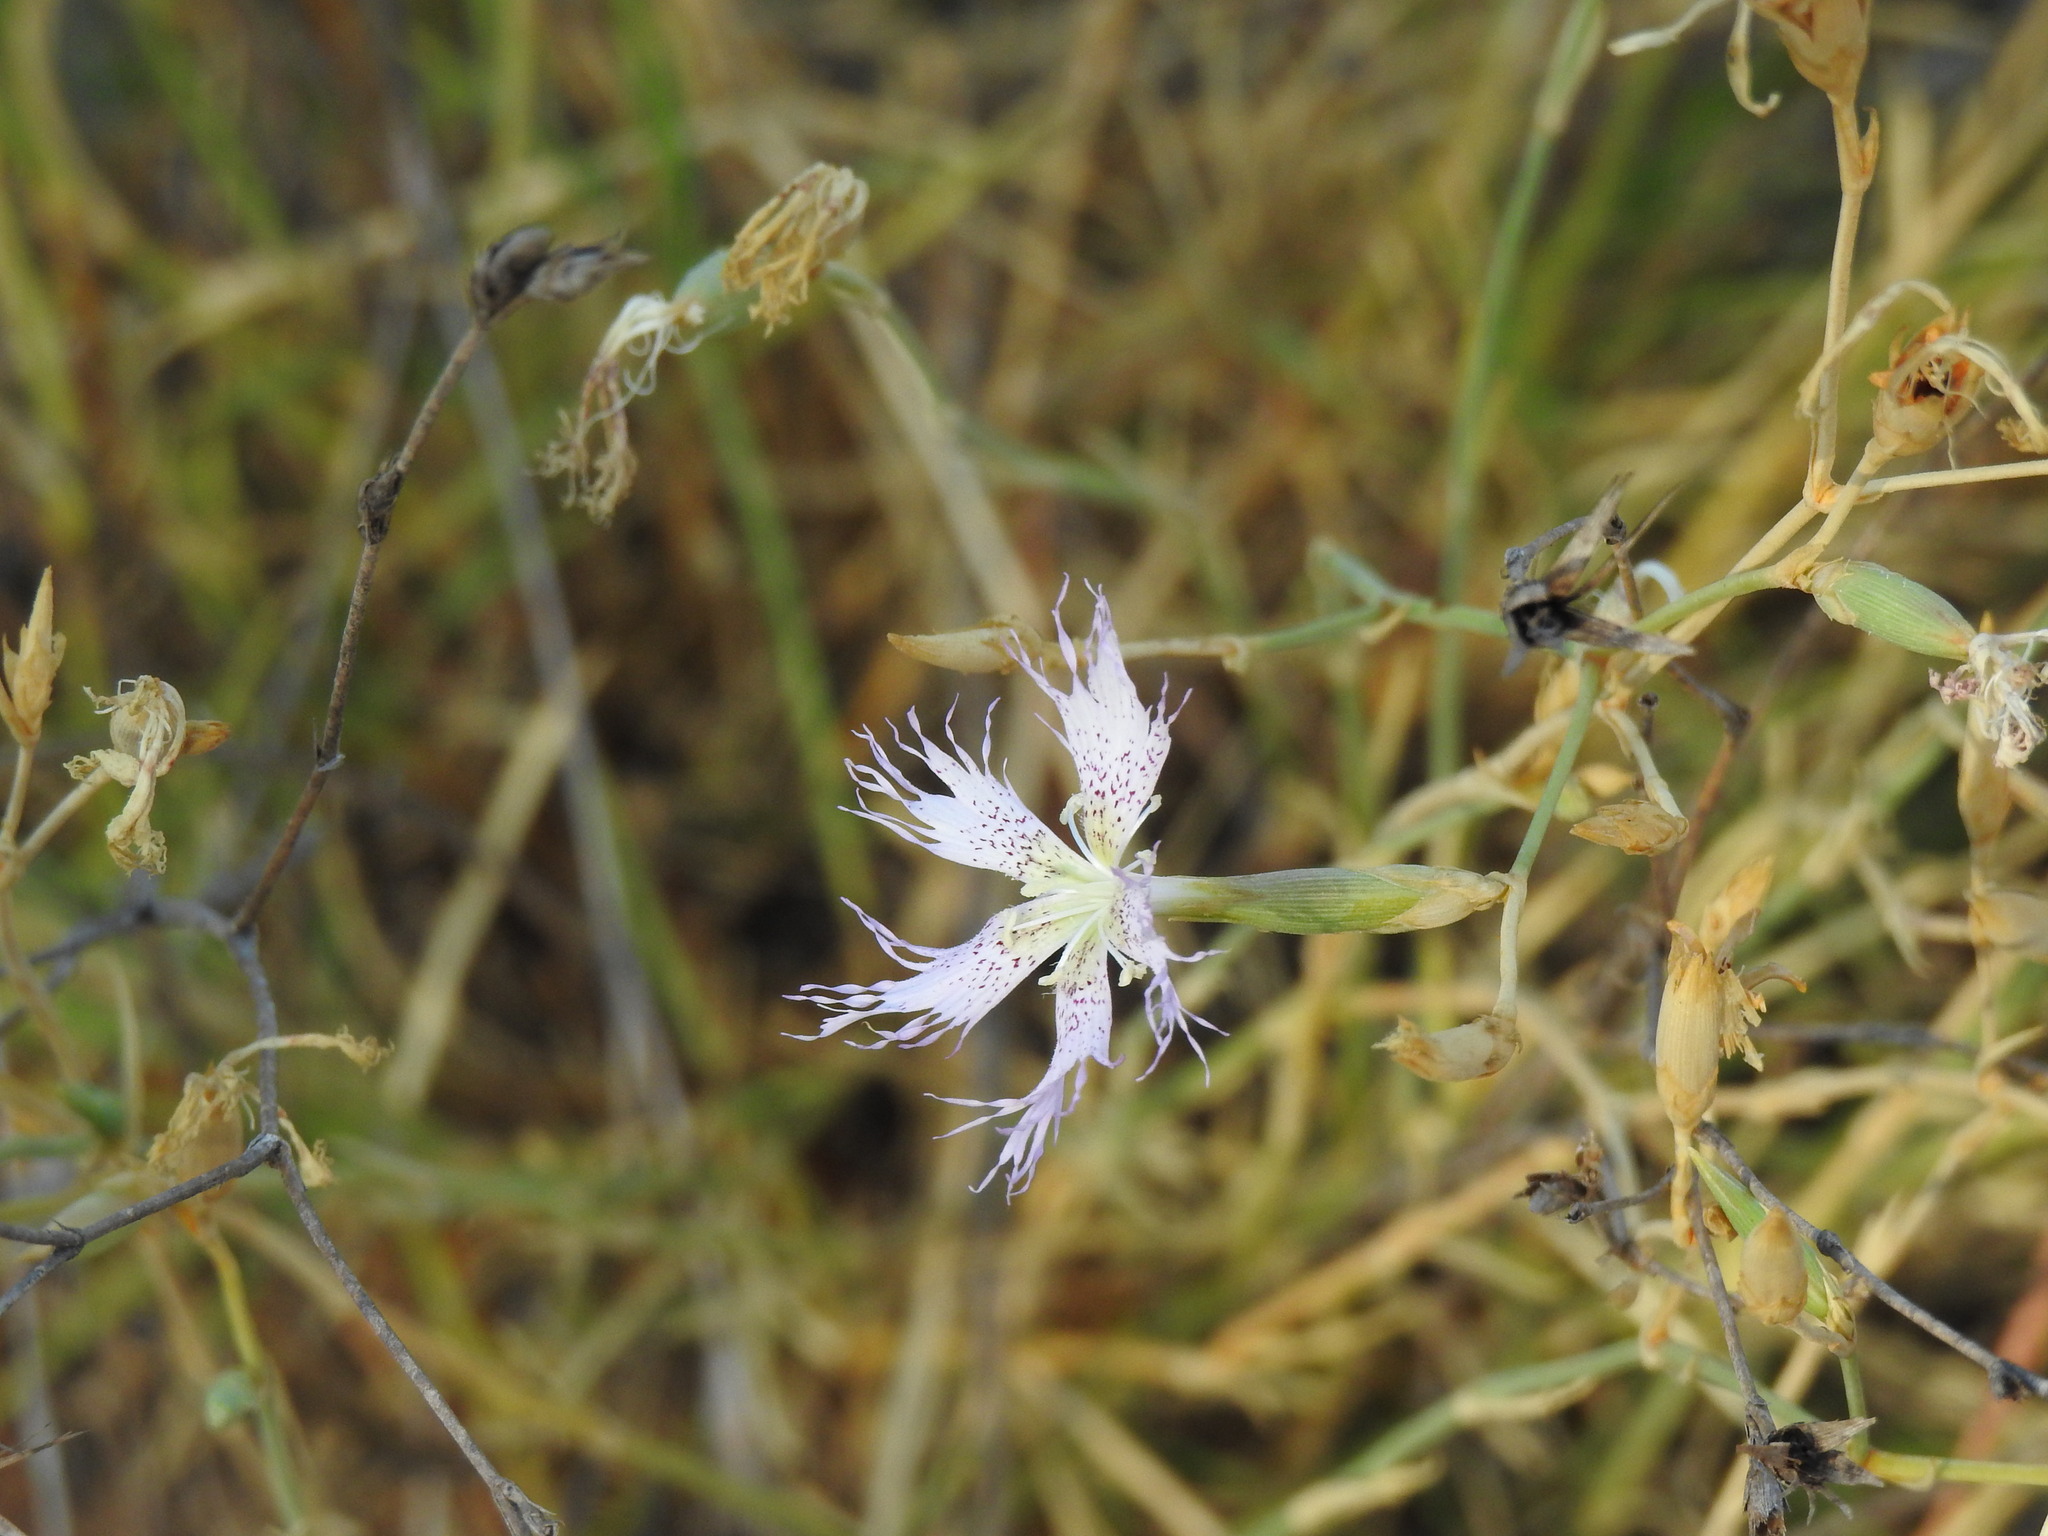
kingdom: Plantae
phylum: Tracheophyta
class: Magnoliopsida
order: Caryophyllales
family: Caryophyllaceae
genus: Dianthus
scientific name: Dianthus broteri
